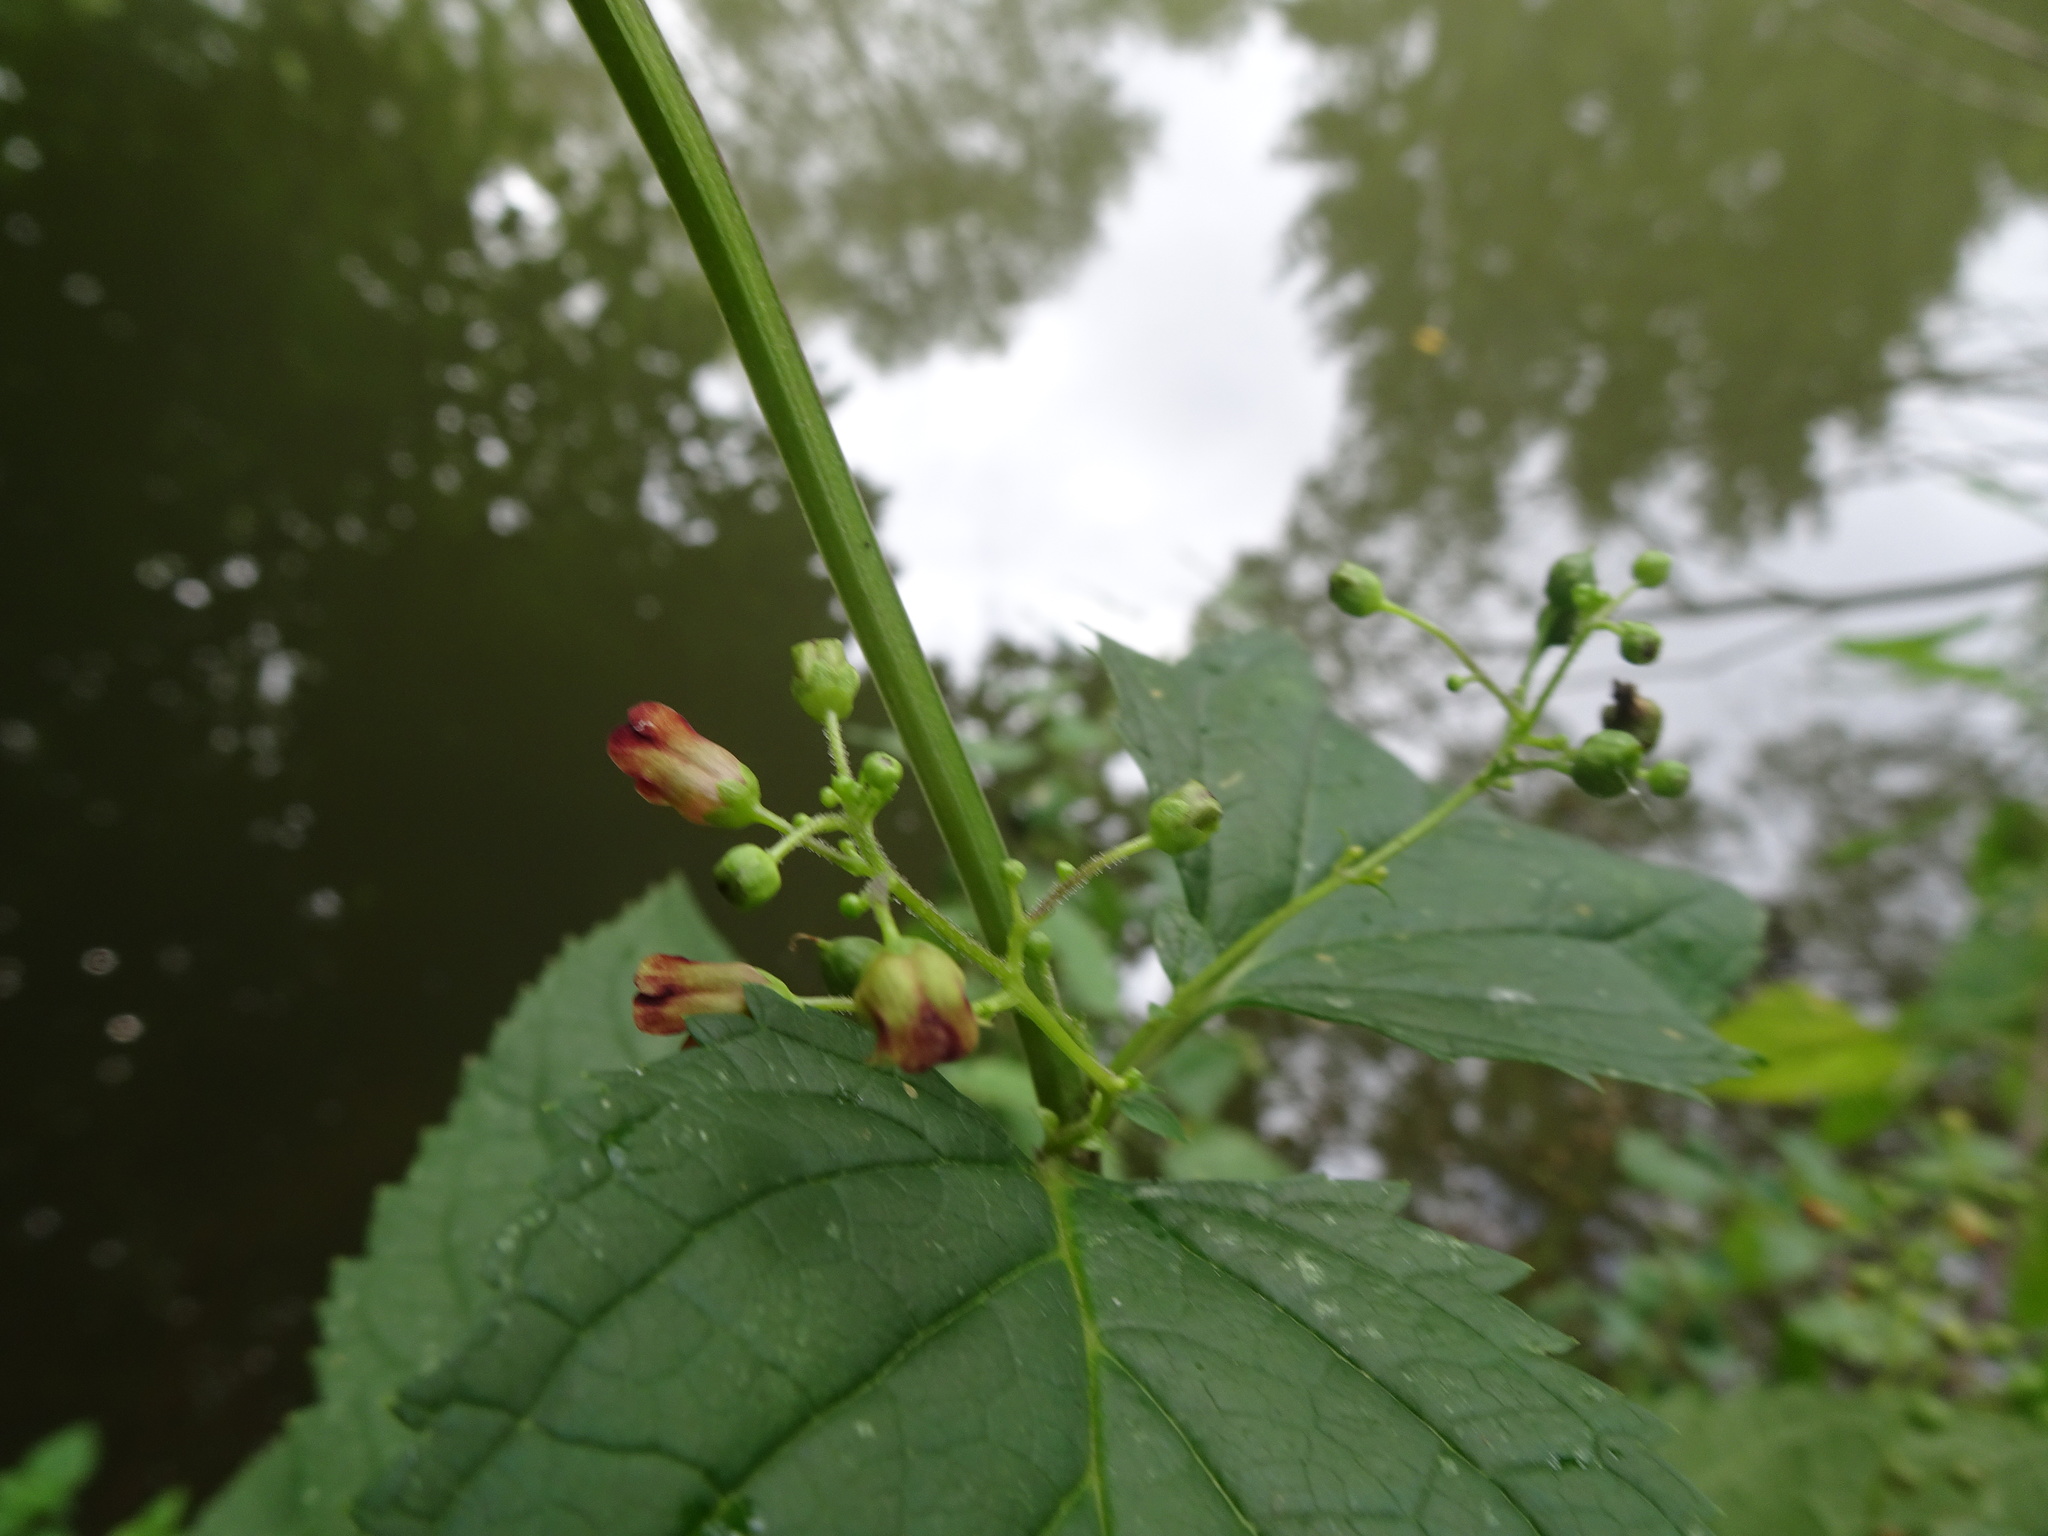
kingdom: Plantae
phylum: Tracheophyta
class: Magnoliopsida
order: Lamiales
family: Scrophulariaceae
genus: Scrophularia
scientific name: Scrophularia nodosa
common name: Common figwort
